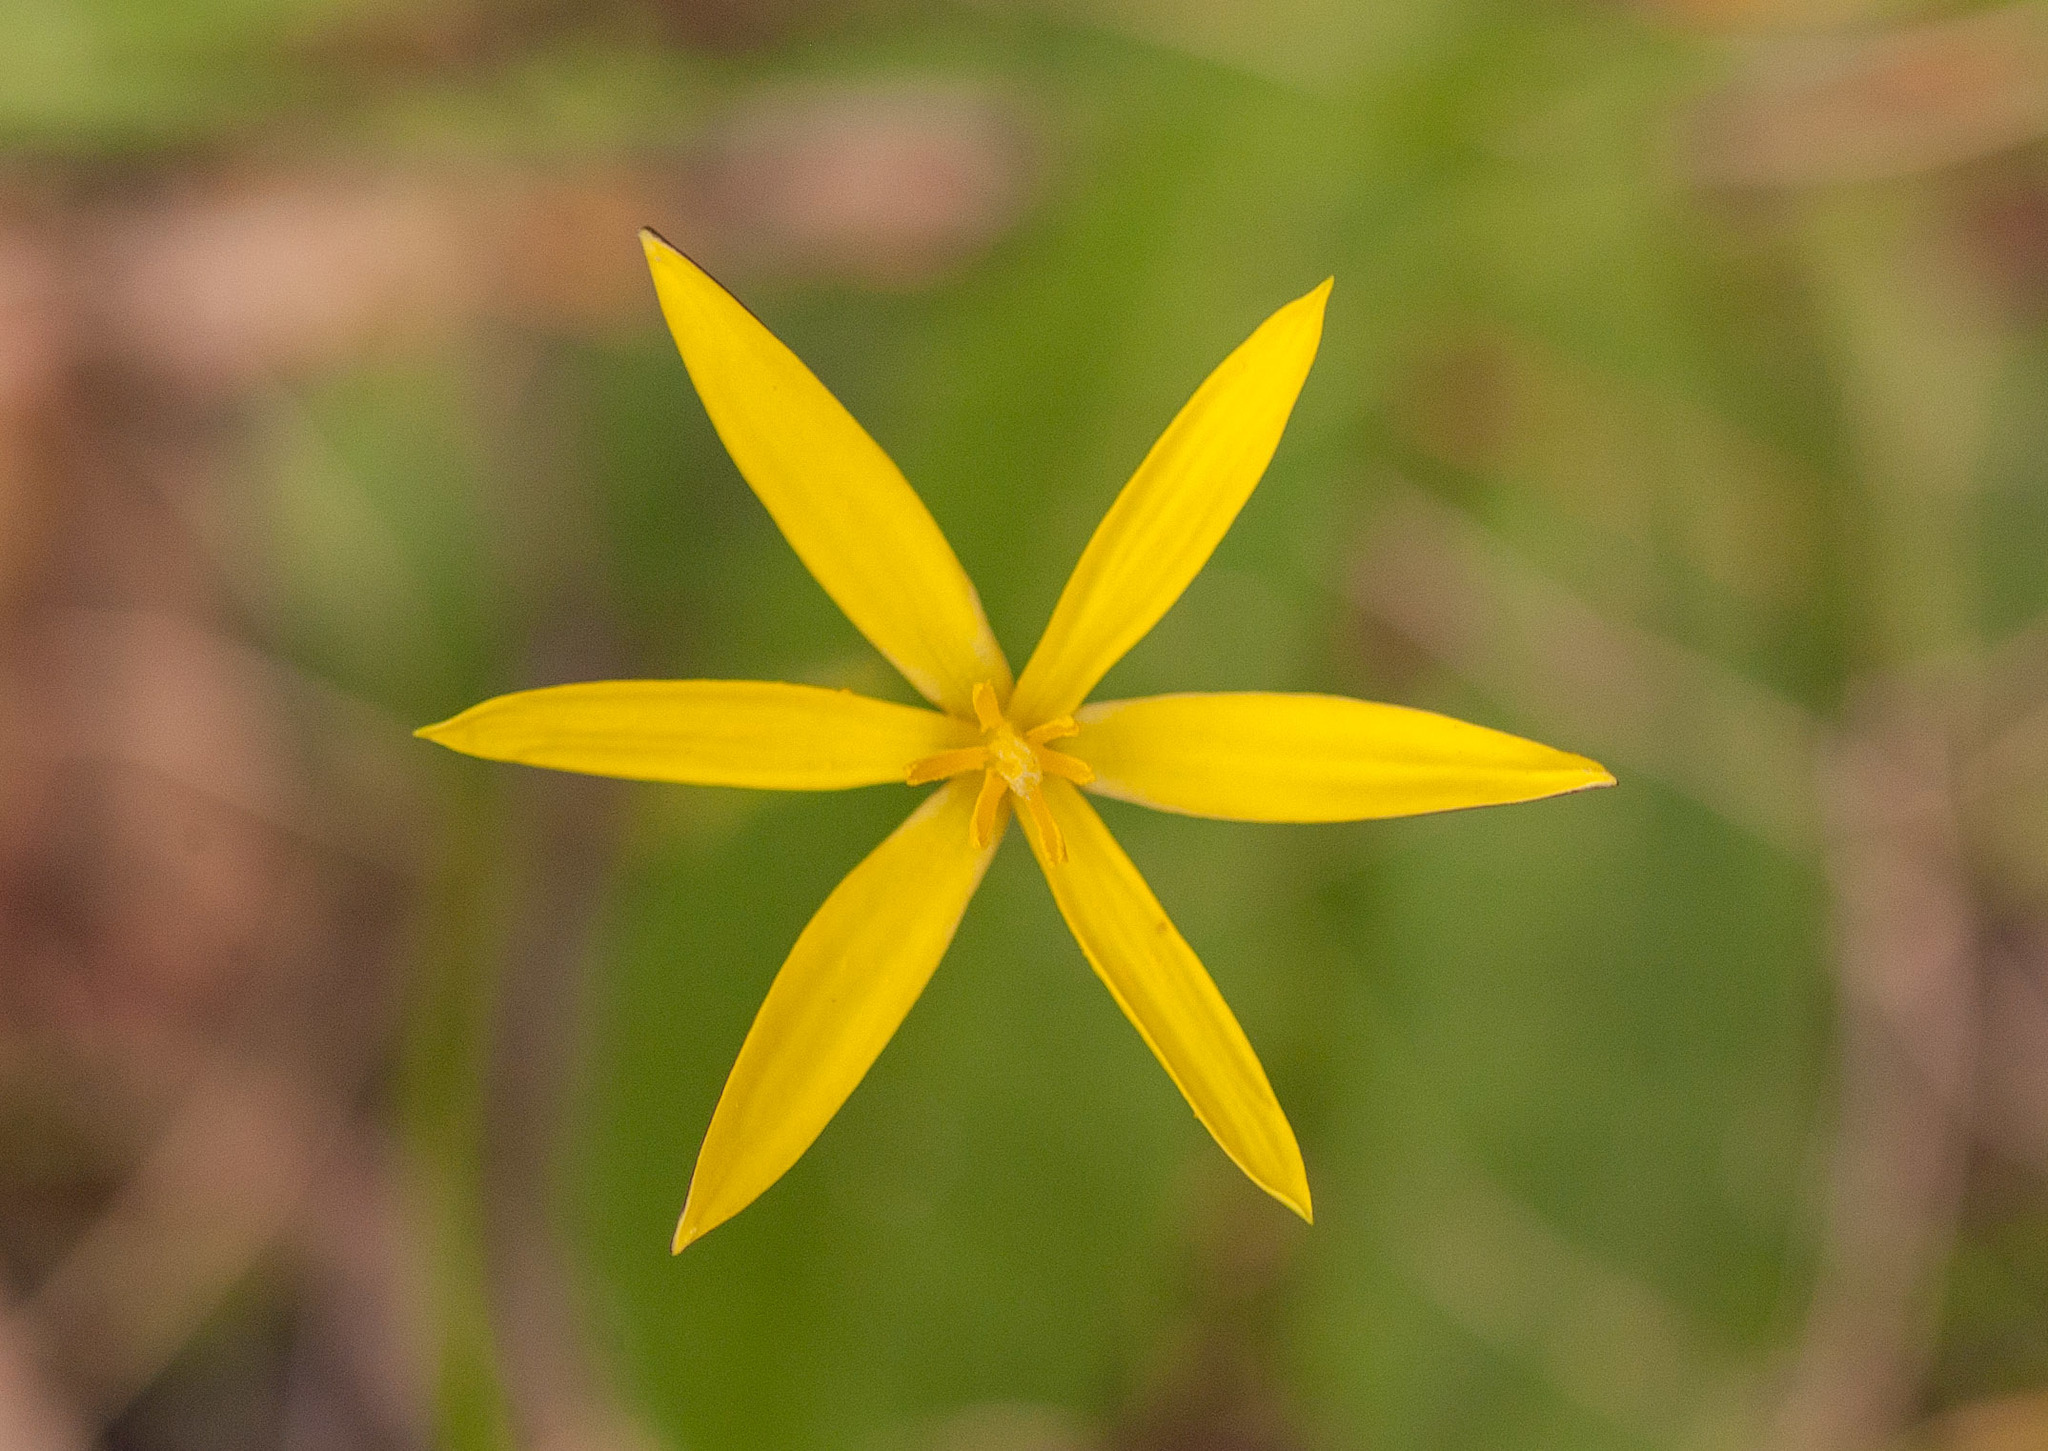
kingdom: Plantae
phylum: Tracheophyta
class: Liliopsida
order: Asparagales
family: Hypoxidaceae
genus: Pauridia
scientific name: Pauridia vaginata
